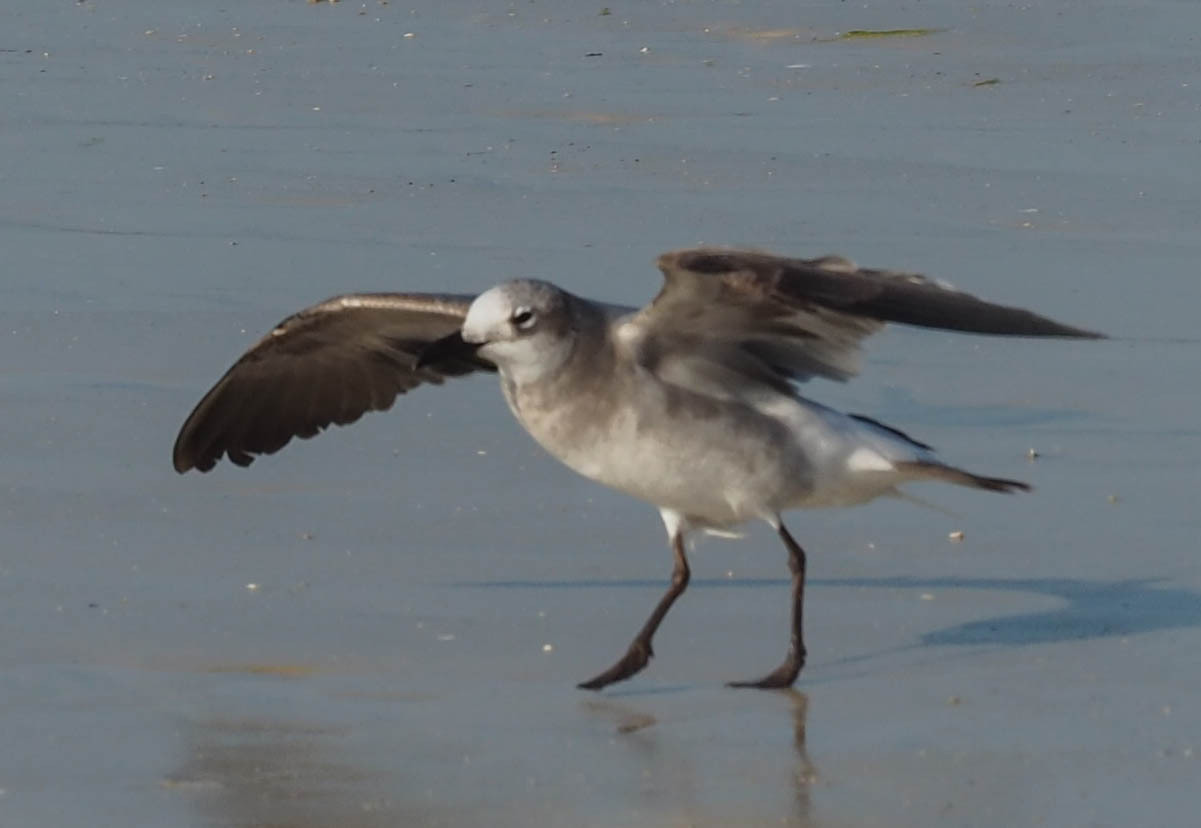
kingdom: Animalia
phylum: Chordata
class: Aves
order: Charadriiformes
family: Laridae
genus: Leucophaeus
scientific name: Leucophaeus atricilla
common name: Laughing gull
